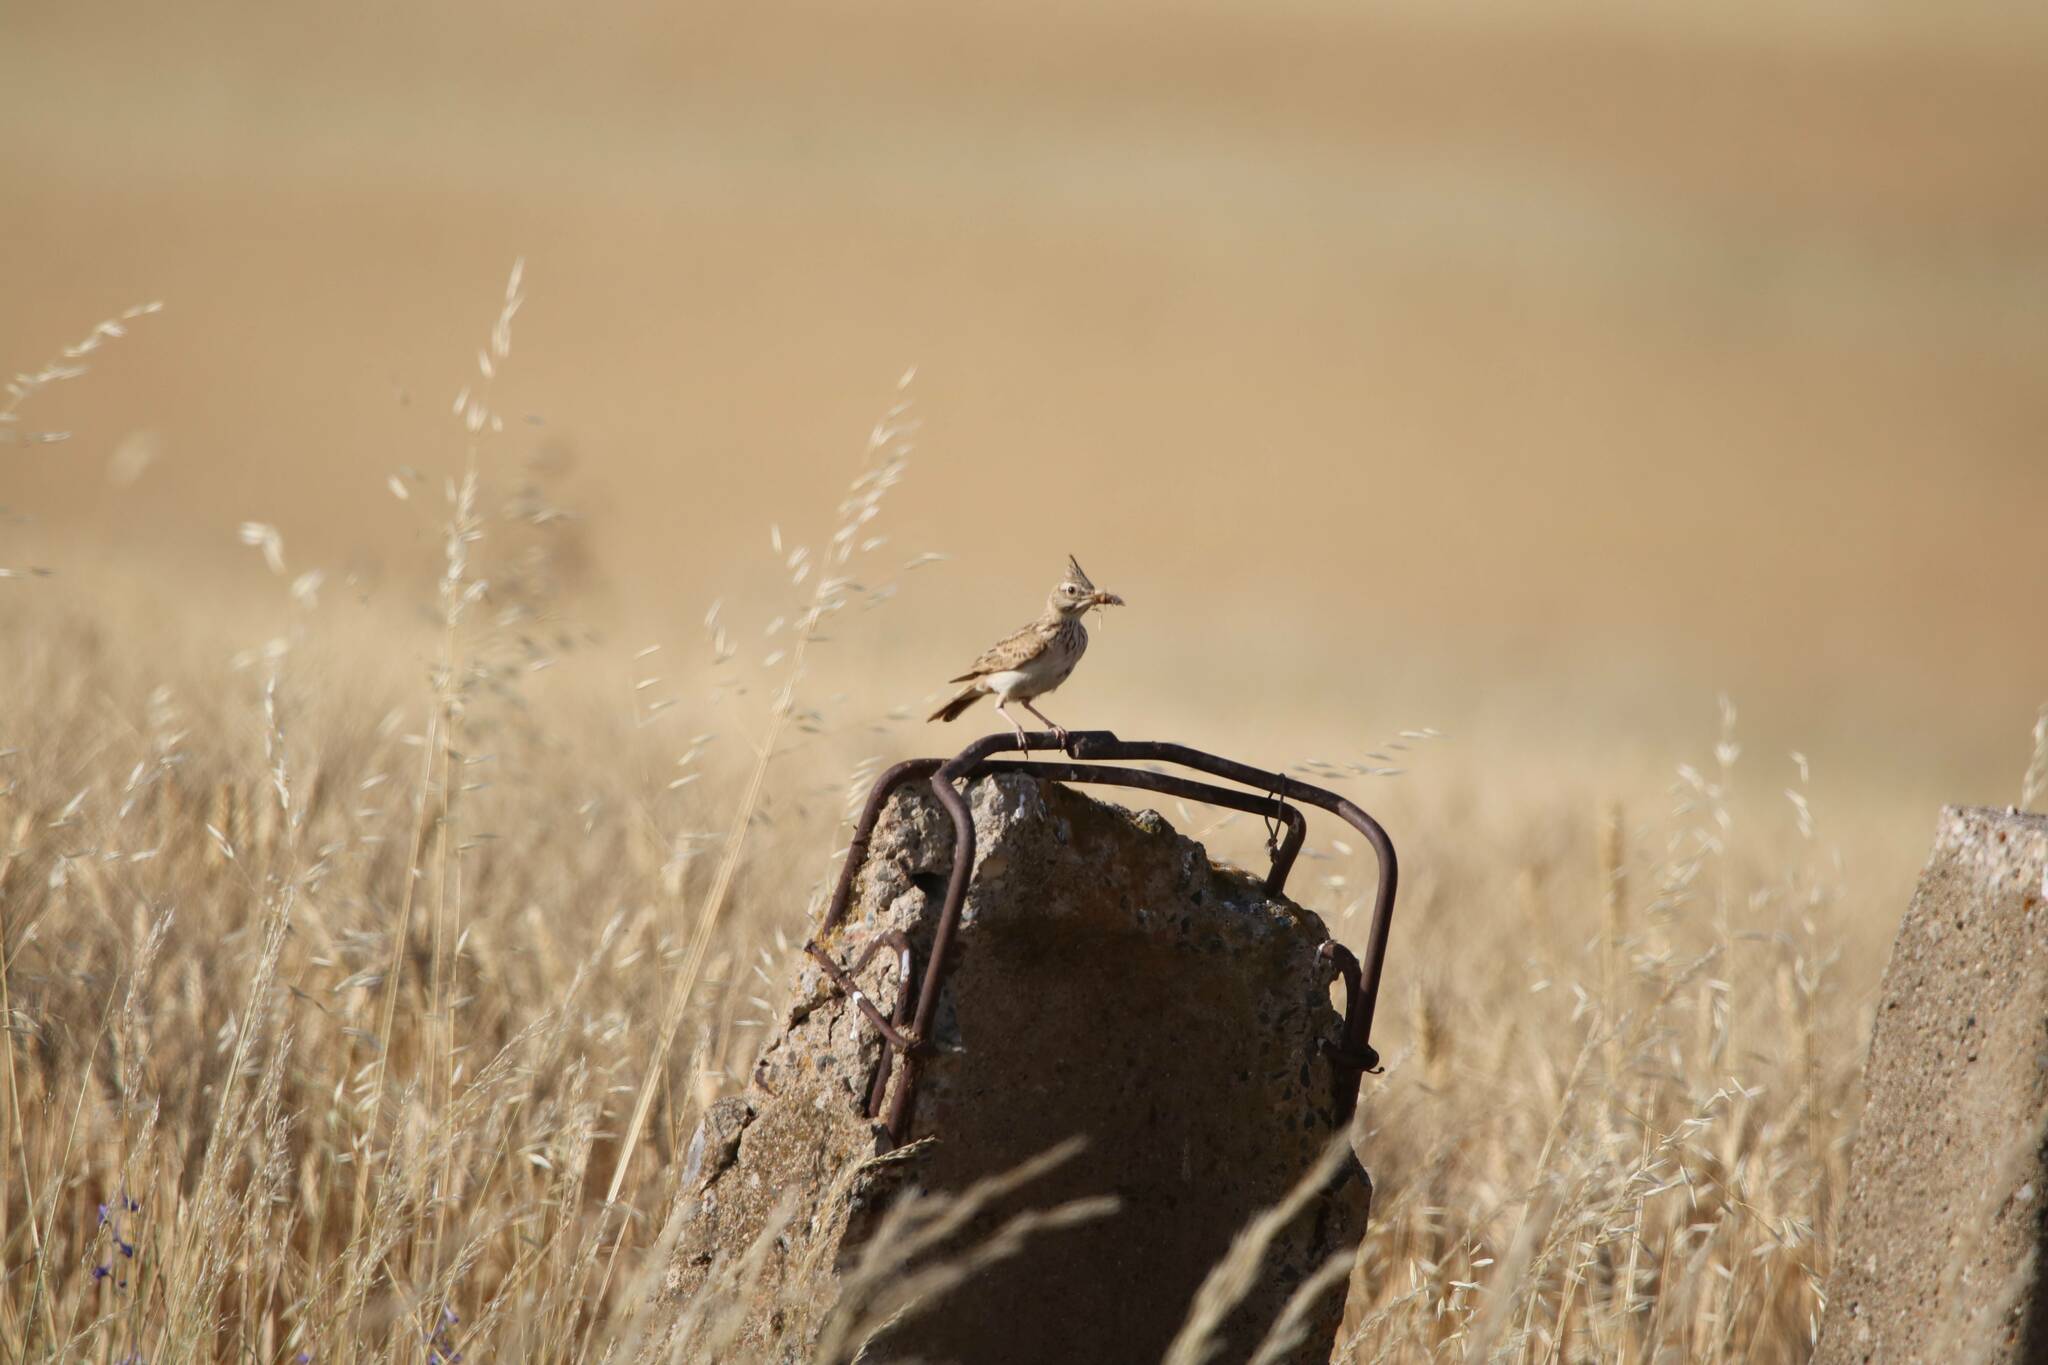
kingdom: Animalia
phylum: Chordata
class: Aves
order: Passeriformes
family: Alaudidae
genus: Galerida
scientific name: Galerida cristata
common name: Crested lark
